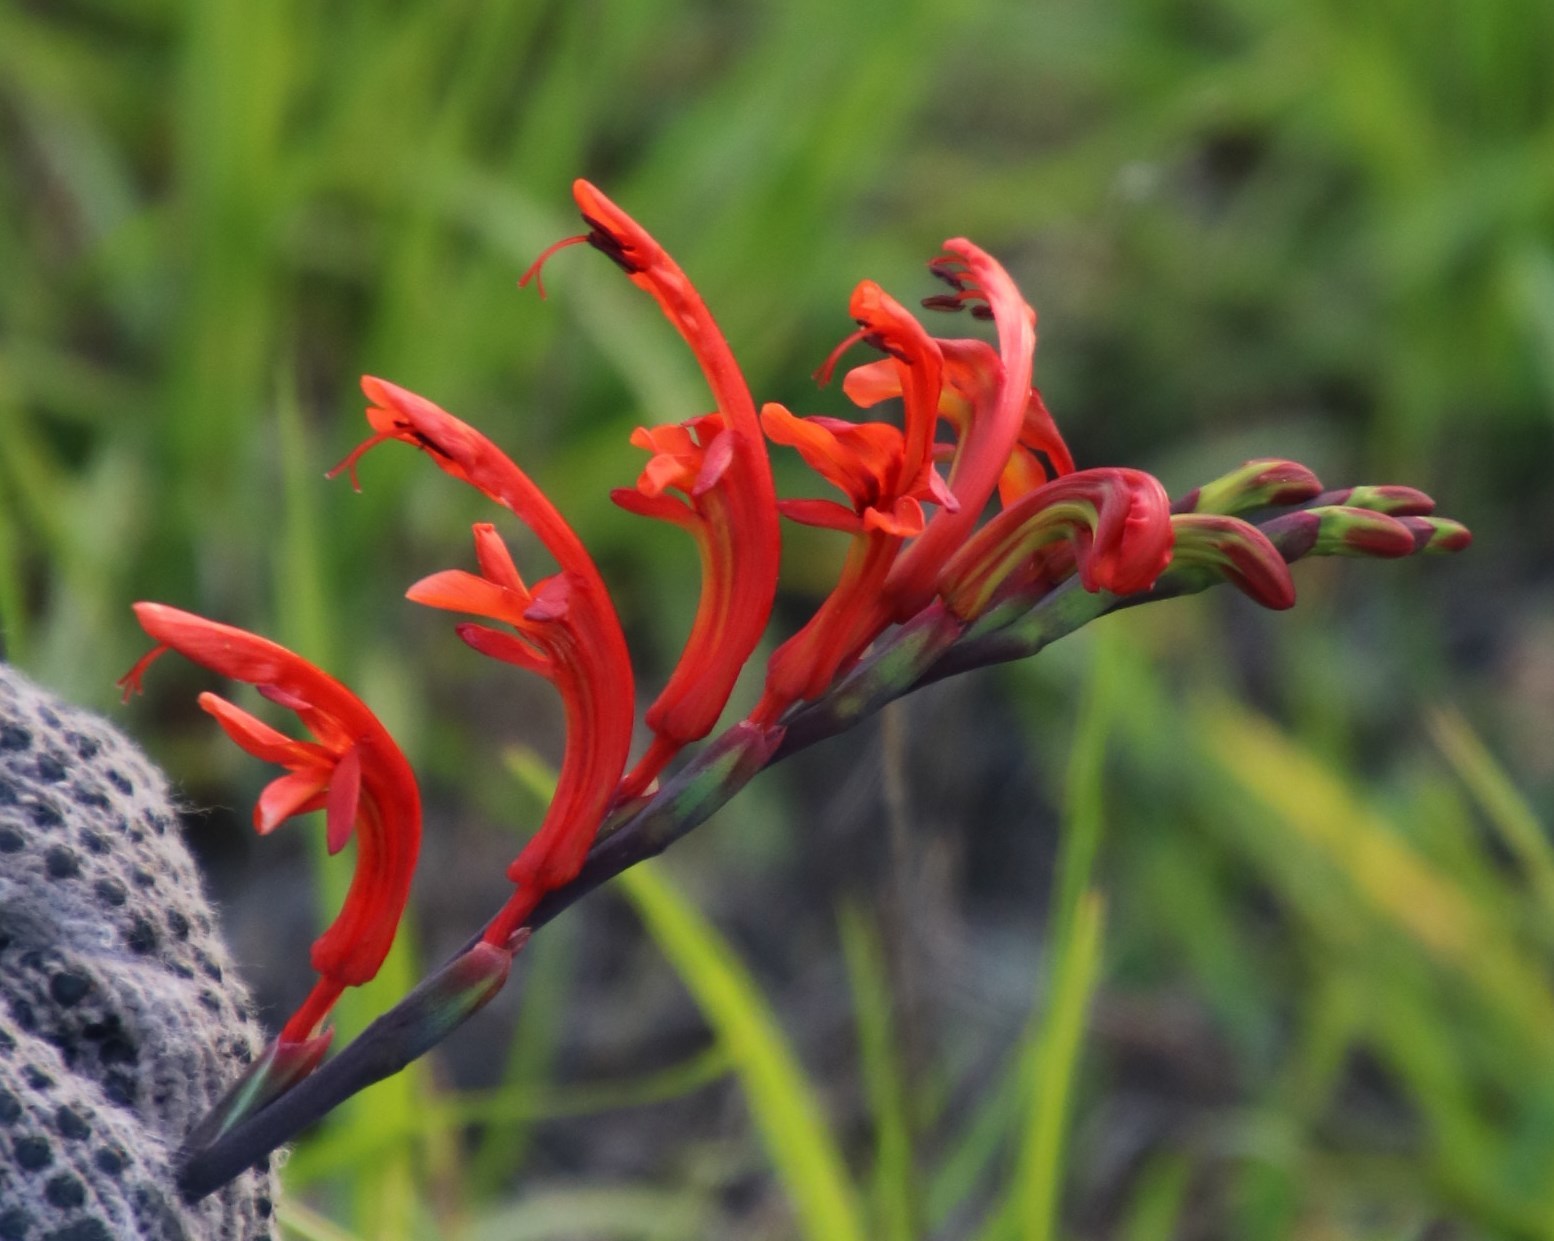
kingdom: Plantae
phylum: Tracheophyta
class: Liliopsida
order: Asparagales
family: Iridaceae
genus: Chasmanthe
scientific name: Chasmanthe aethiopica
